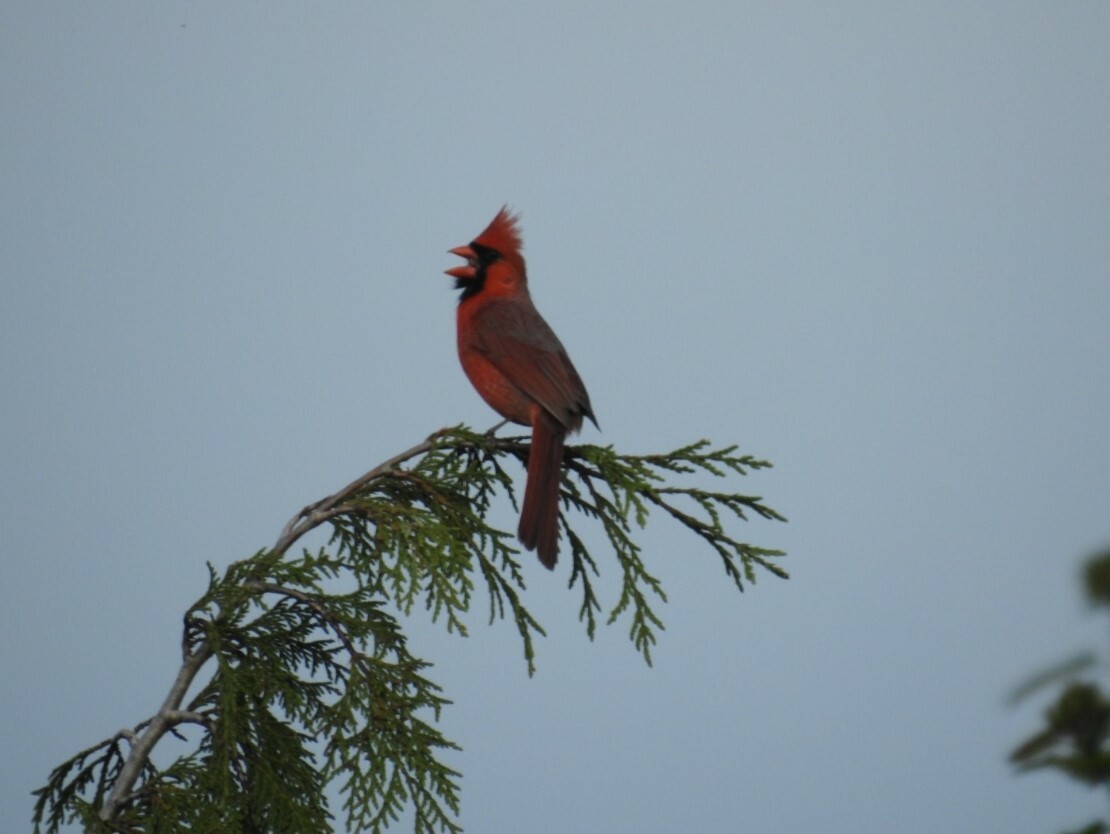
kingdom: Animalia
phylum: Chordata
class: Aves
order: Passeriformes
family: Cardinalidae
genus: Cardinalis
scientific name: Cardinalis cardinalis
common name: Northern cardinal
